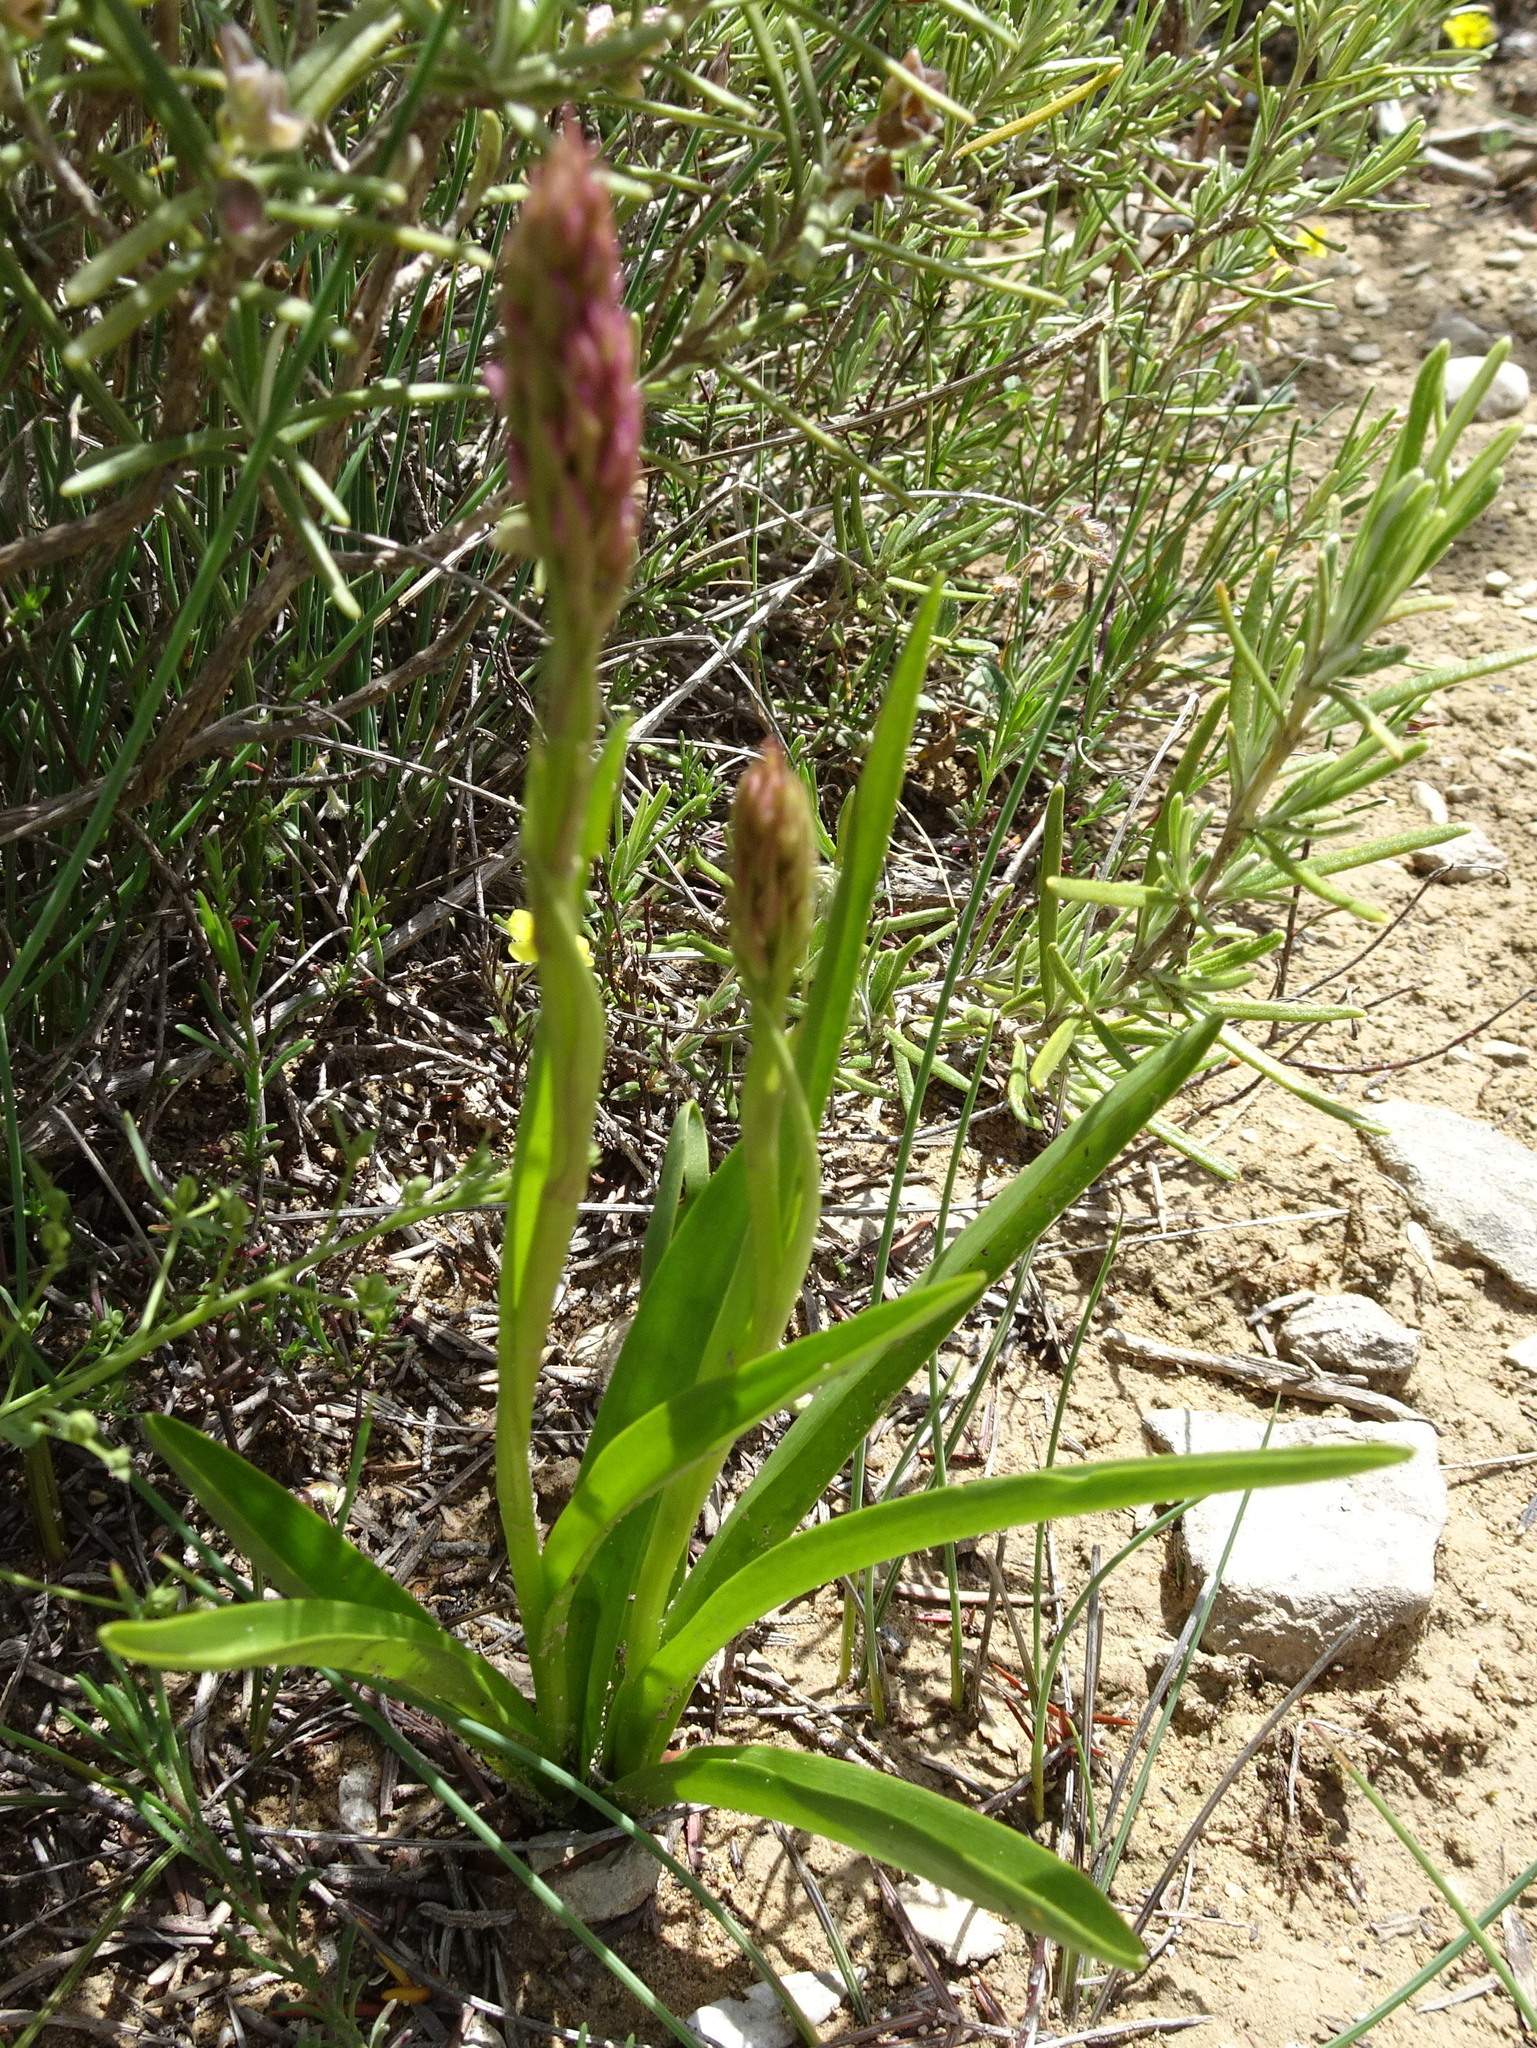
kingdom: Plantae
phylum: Tracheophyta
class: Liliopsida
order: Asparagales
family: Orchidaceae
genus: Gymnadenia
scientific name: Gymnadenia conopsea
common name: Fragrant orchid
